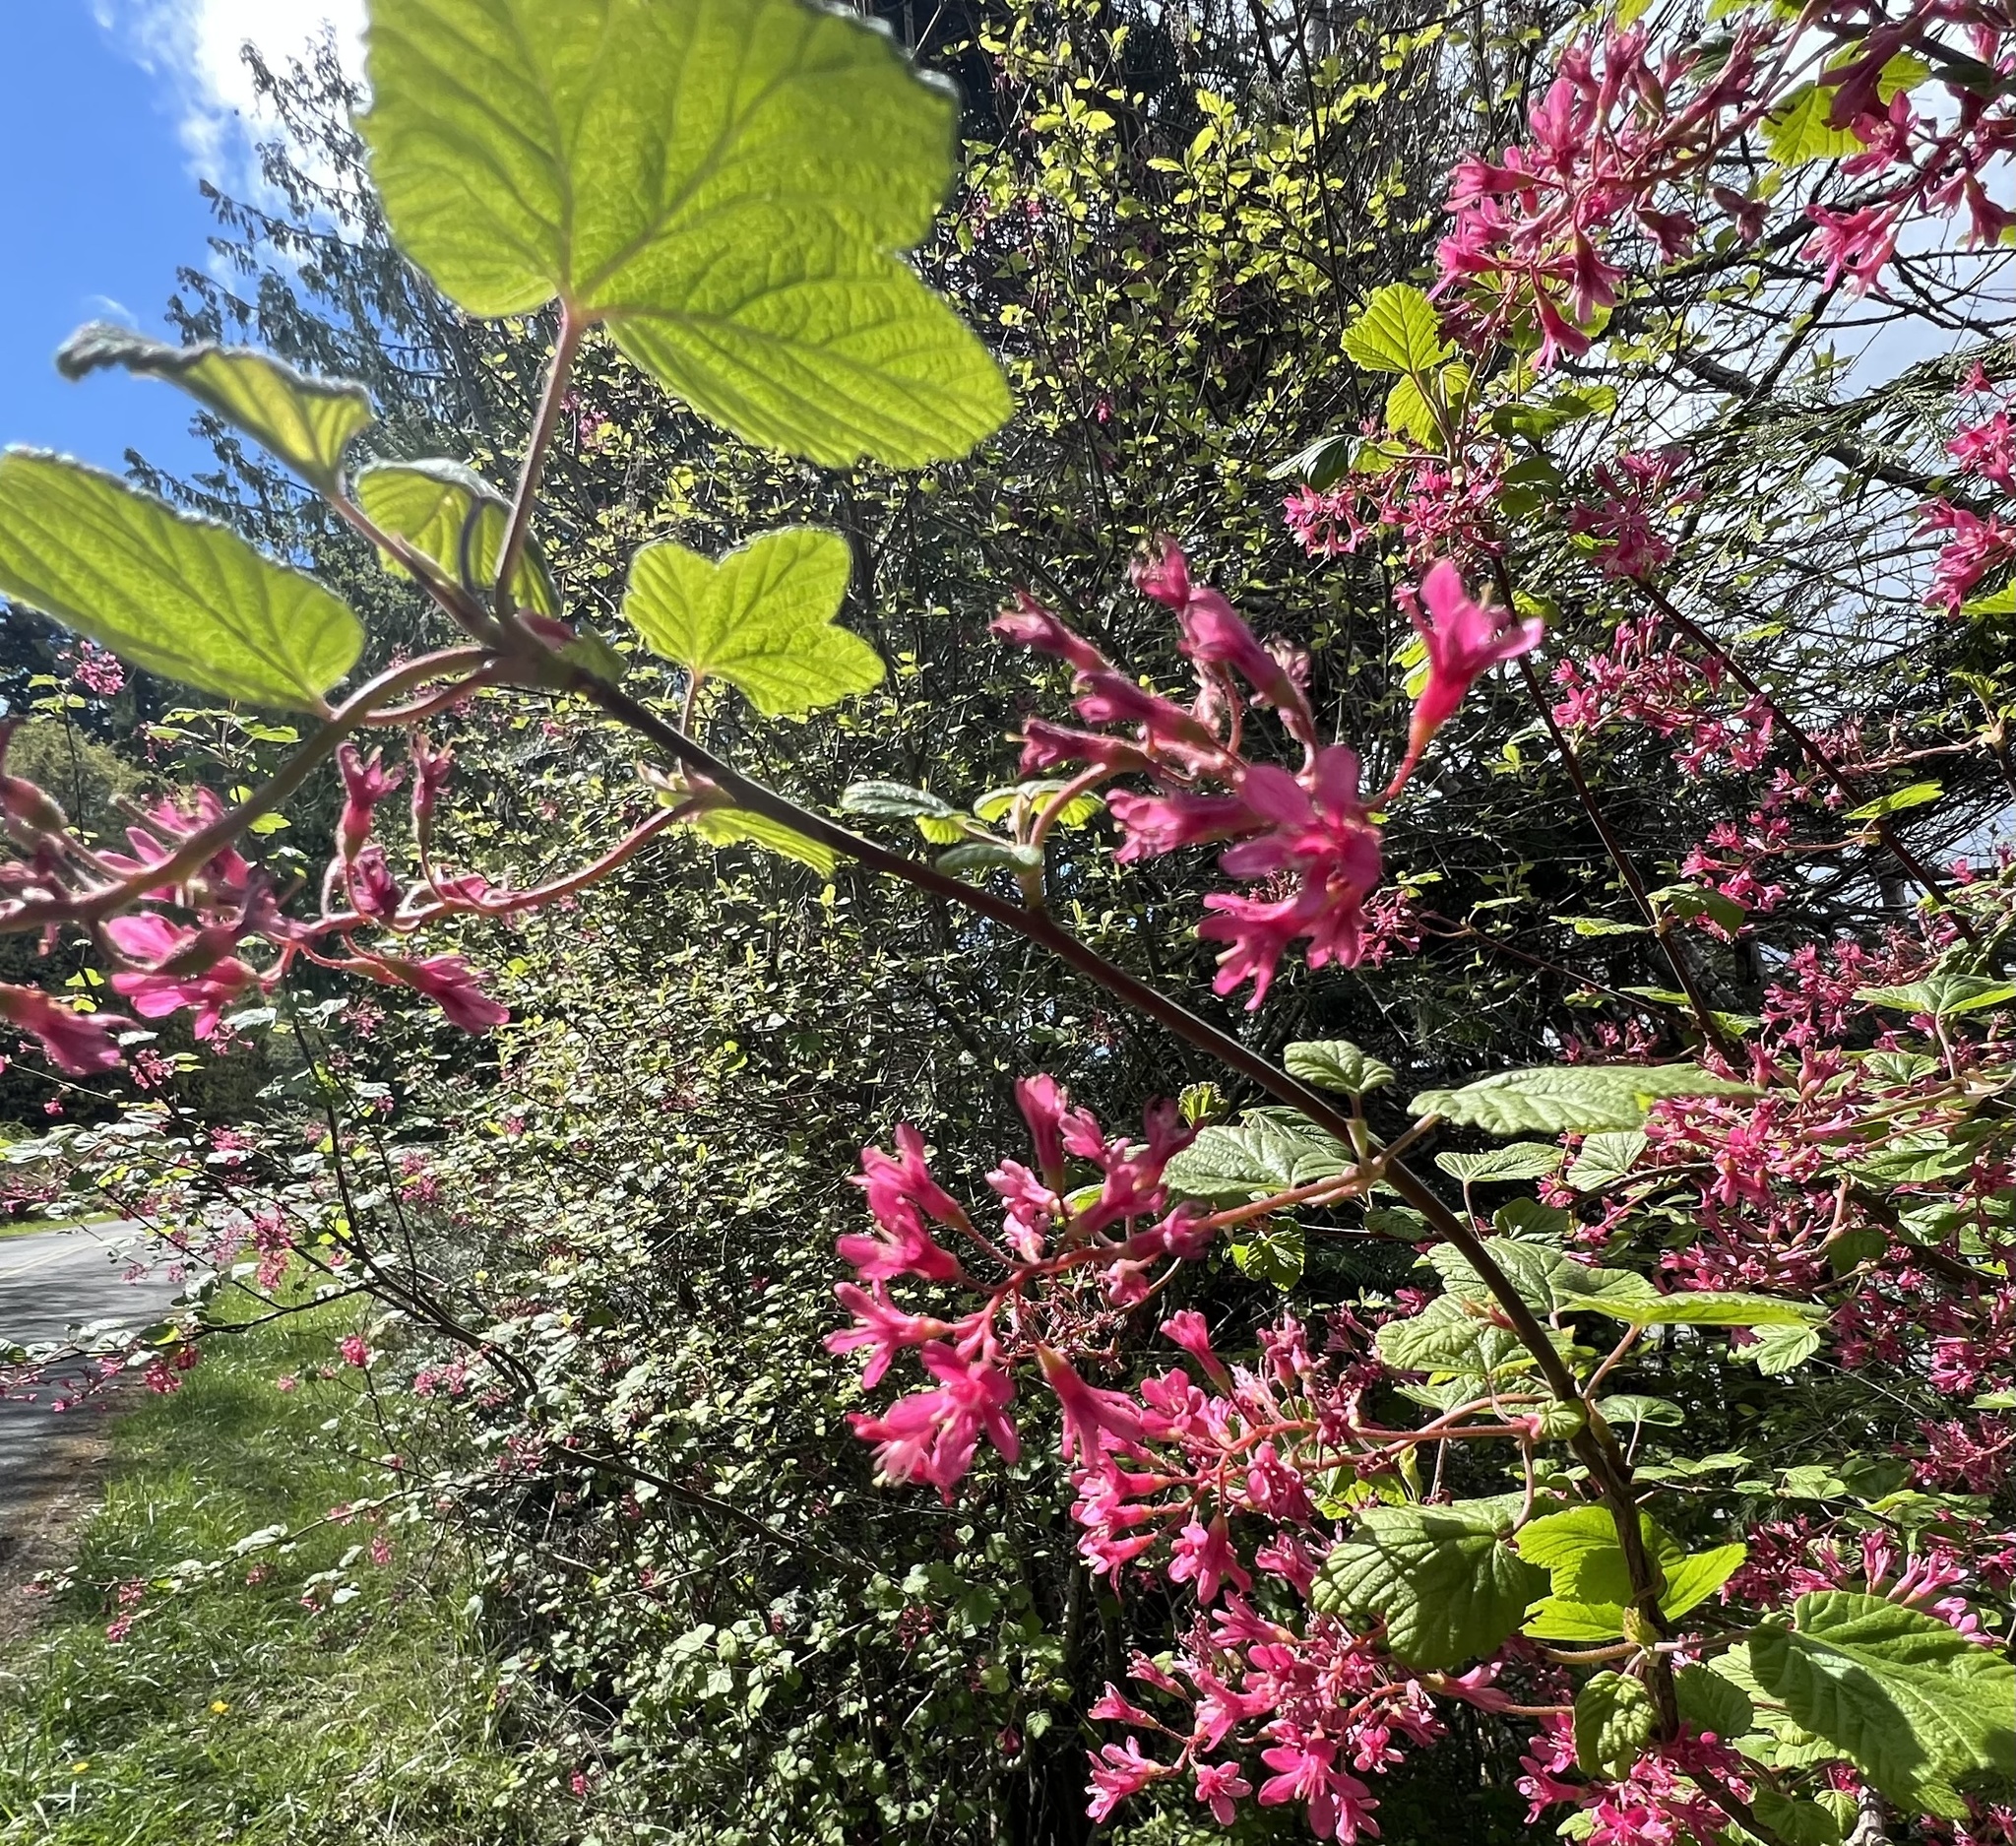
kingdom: Plantae
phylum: Tracheophyta
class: Magnoliopsida
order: Saxifragales
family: Grossulariaceae
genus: Ribes
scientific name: Ribes sanguineum
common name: Flowering currant
